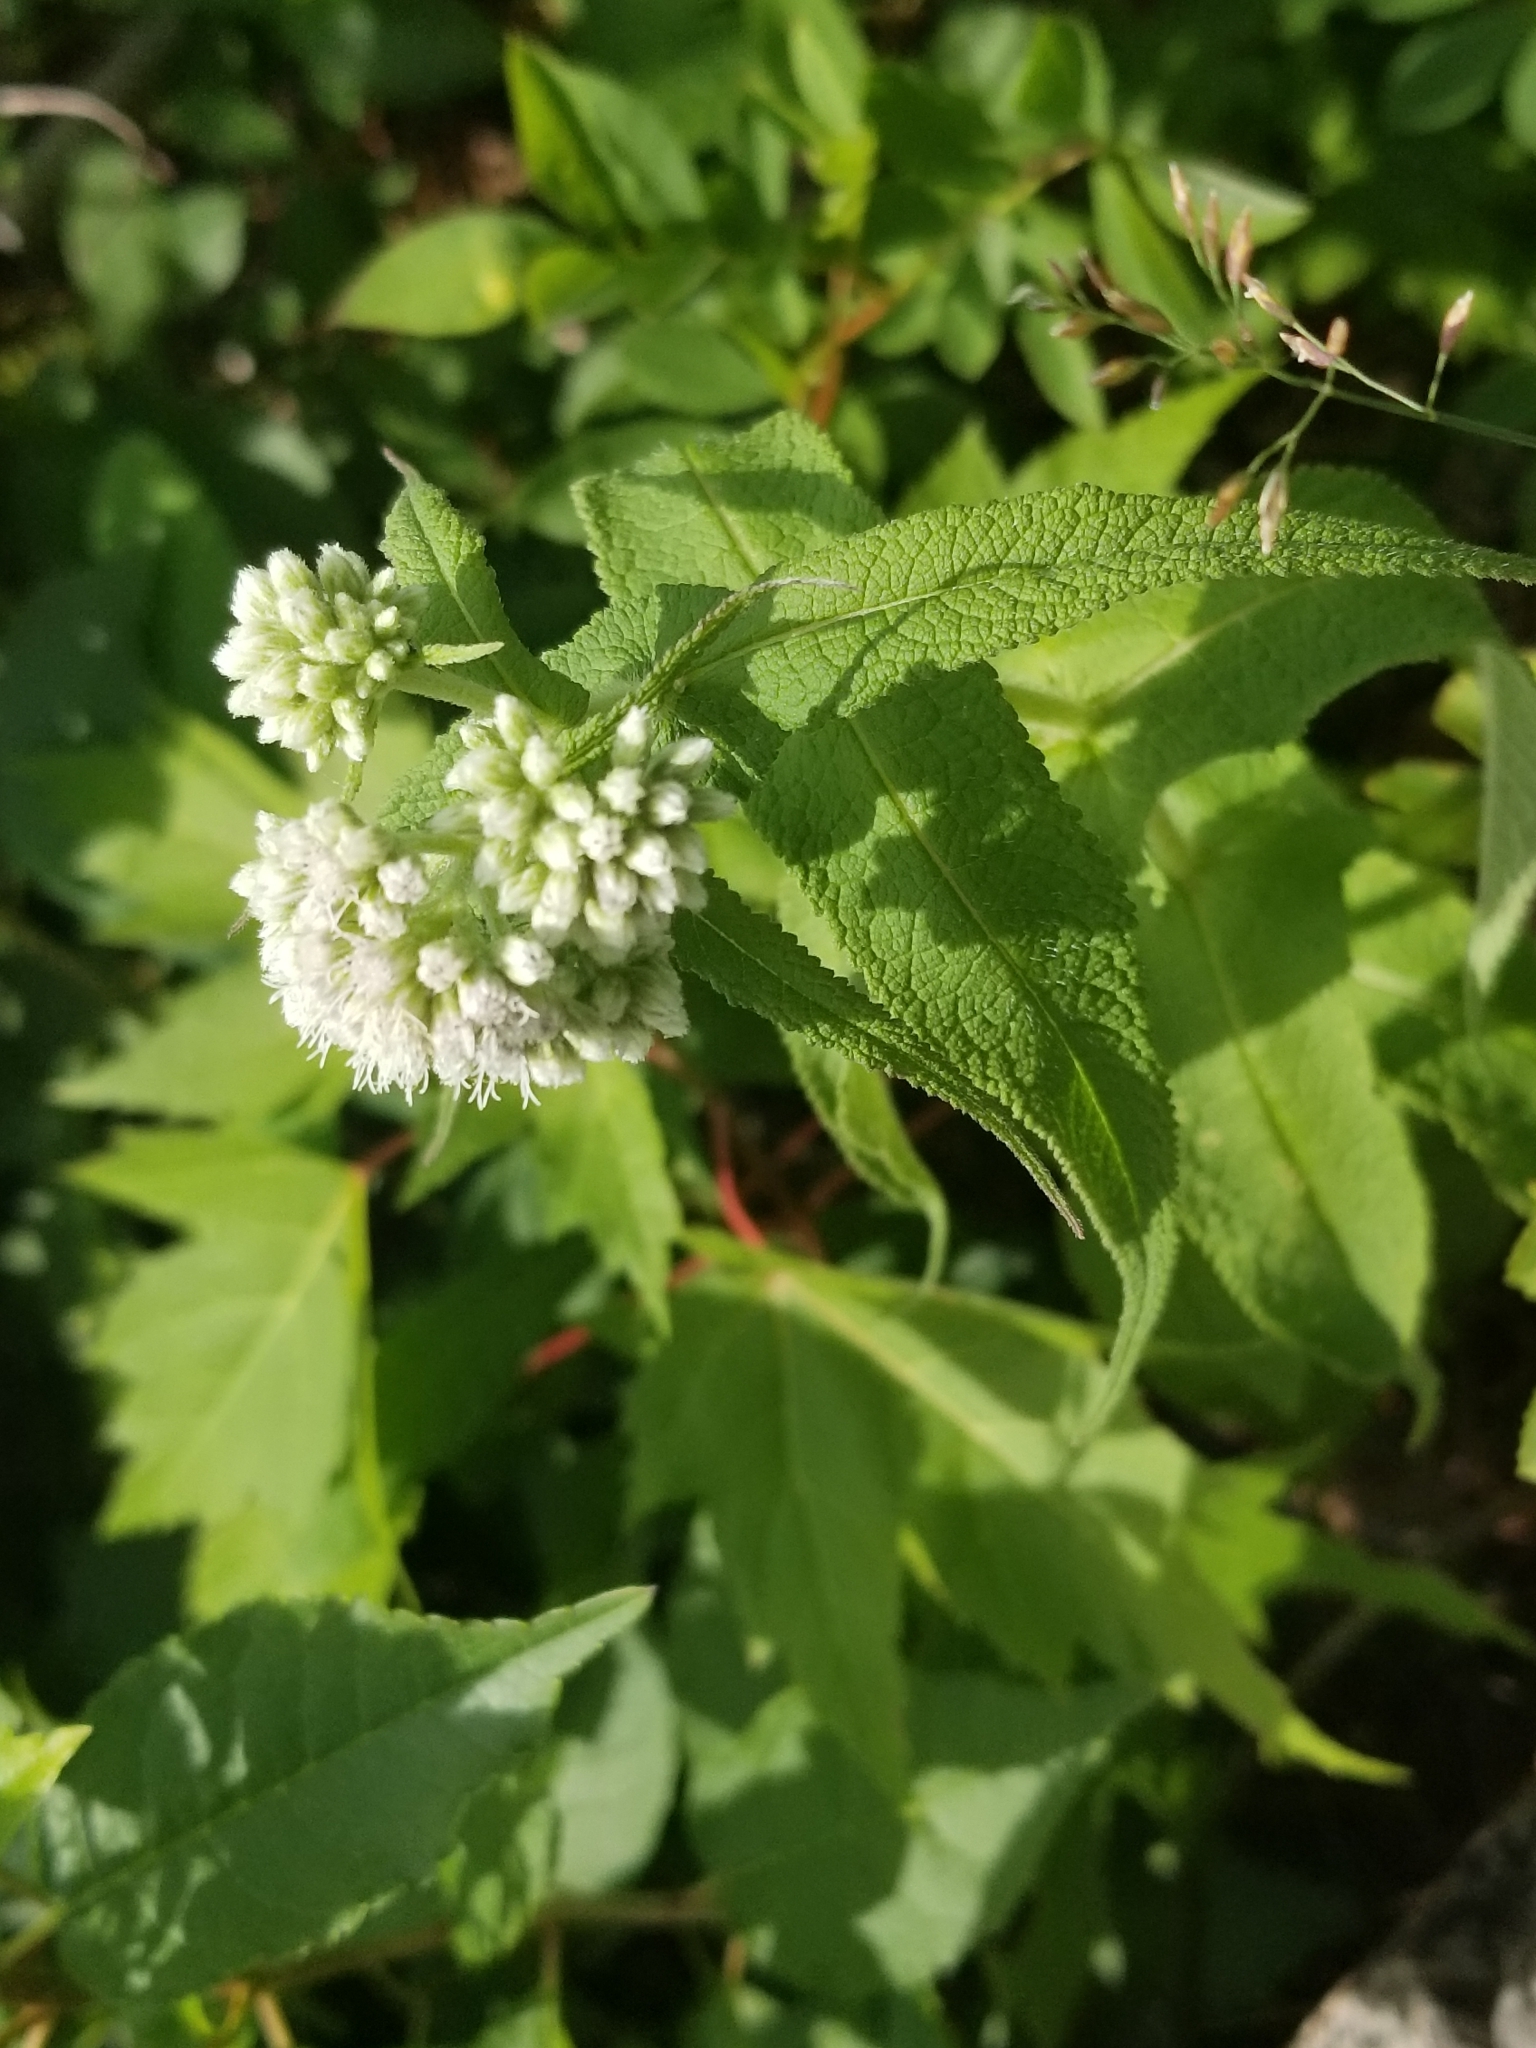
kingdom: Plantae
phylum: Tracheophyta
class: Magnoliopsida
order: Asterales
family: Asteraceae
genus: Eupatorium
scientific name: Eupatorium perfoliatum
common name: Boneset
